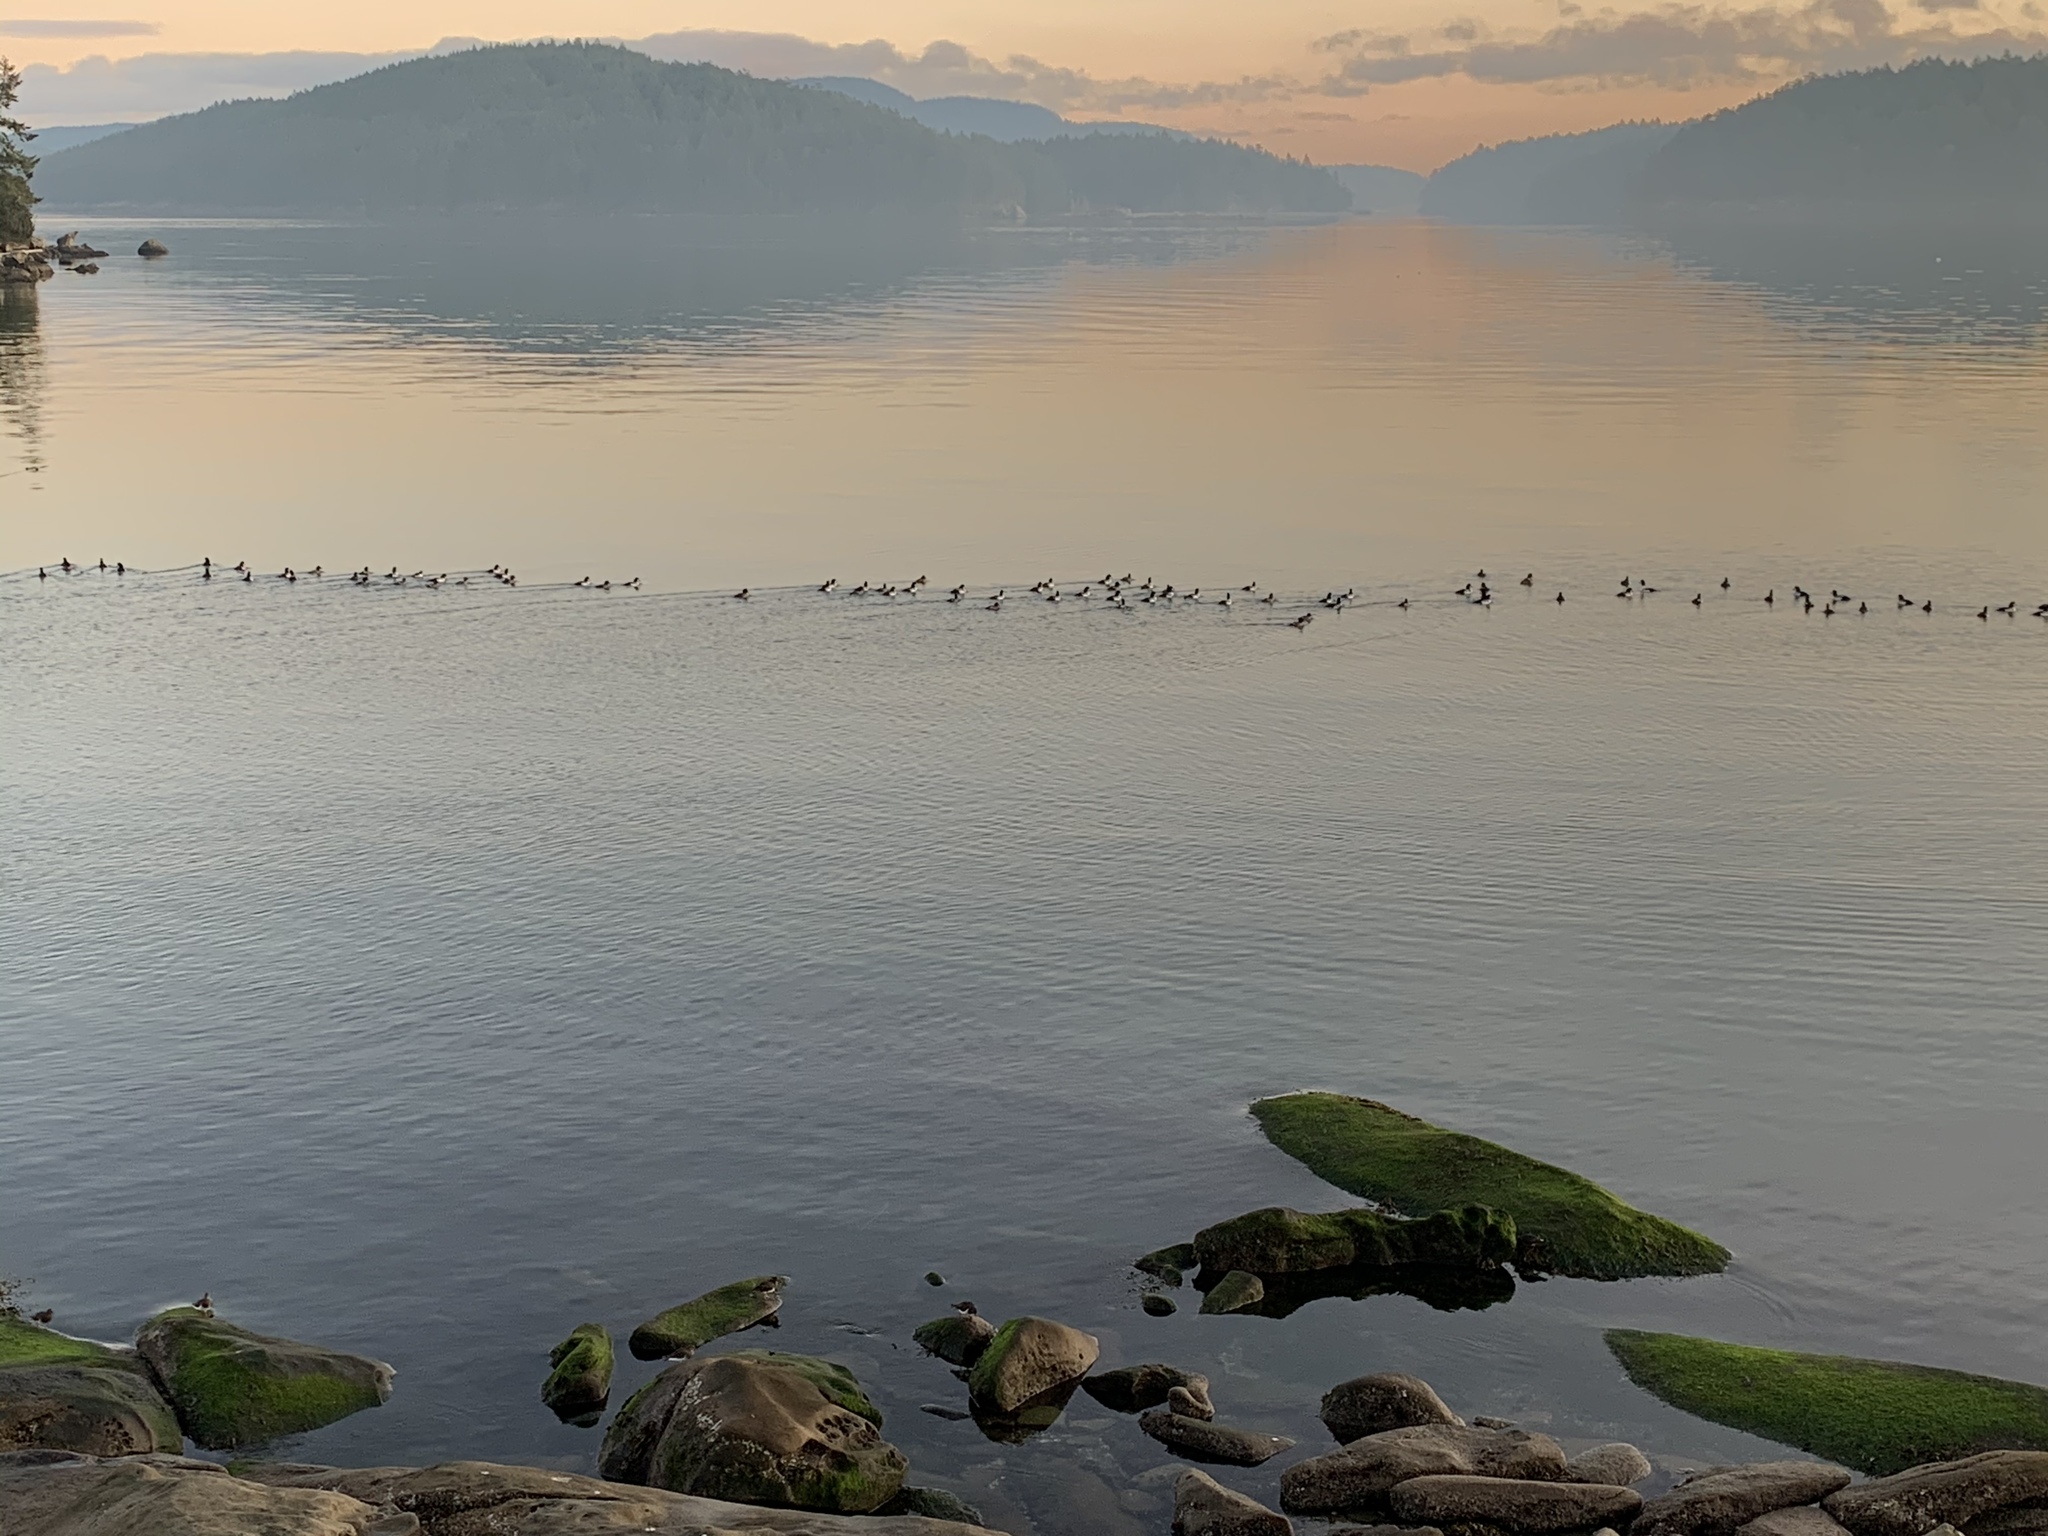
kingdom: Animalia
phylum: Chordata
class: Aves
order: Anseriformes
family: Anatidae
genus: Bucephala
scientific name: Bucephala islandica
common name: Barrow's goldeneye
